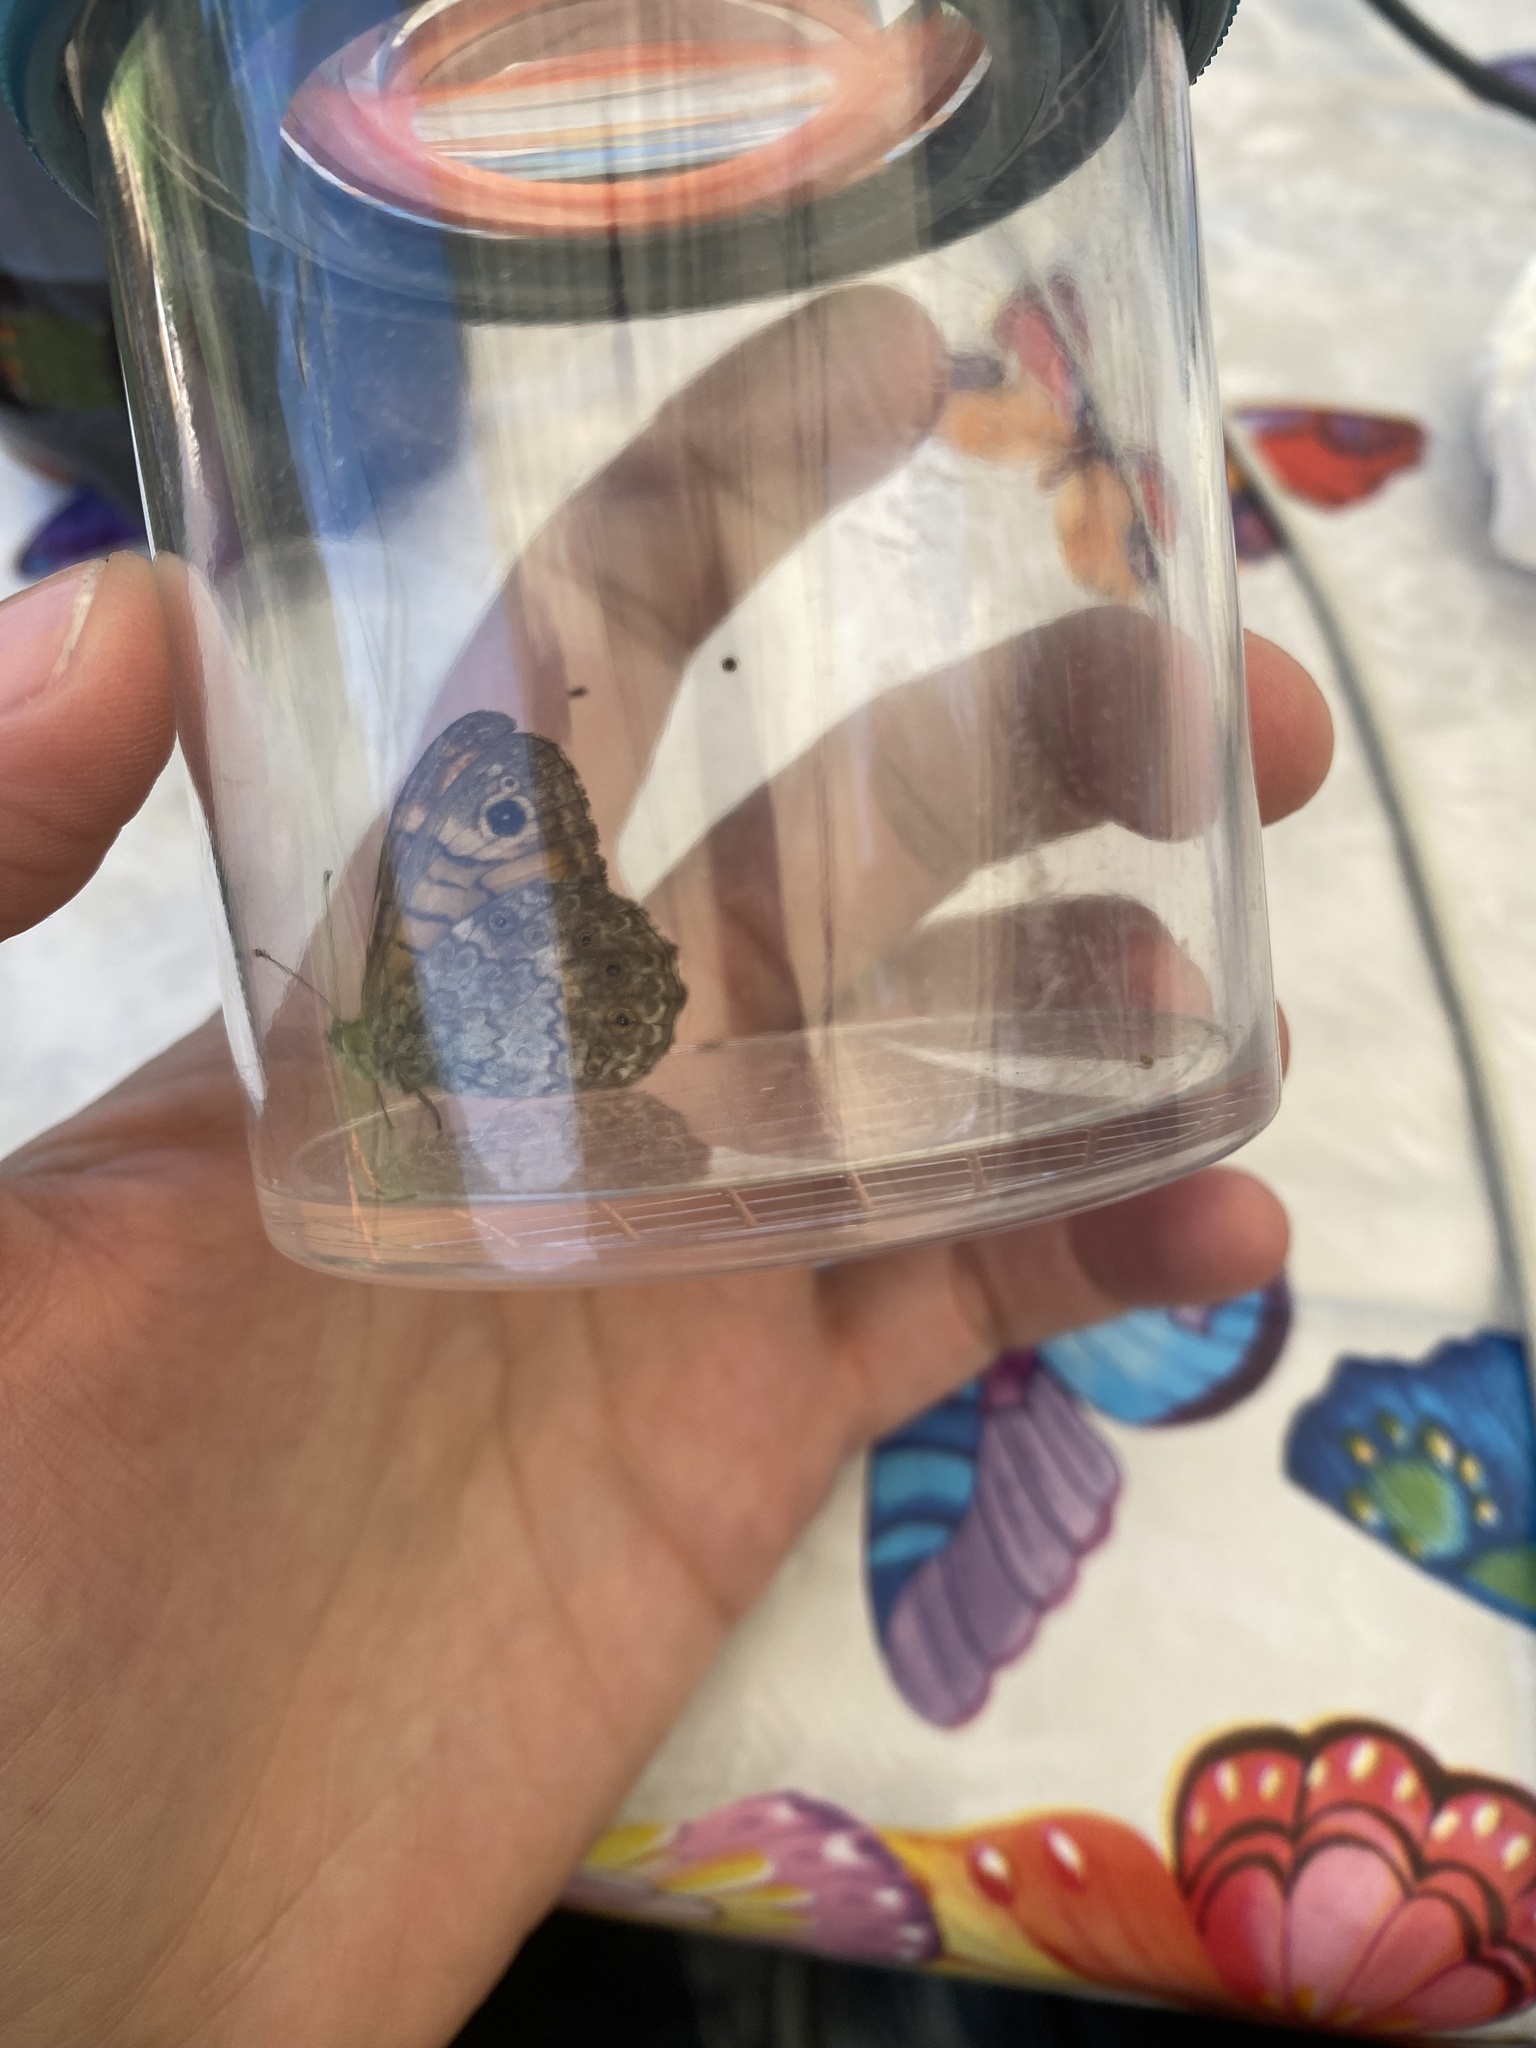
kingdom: Animalia
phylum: Arthropoda
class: Insecta
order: Lepidoptera
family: Nymphalidae
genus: Pararge
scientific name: Pararge Lasiommata megera
